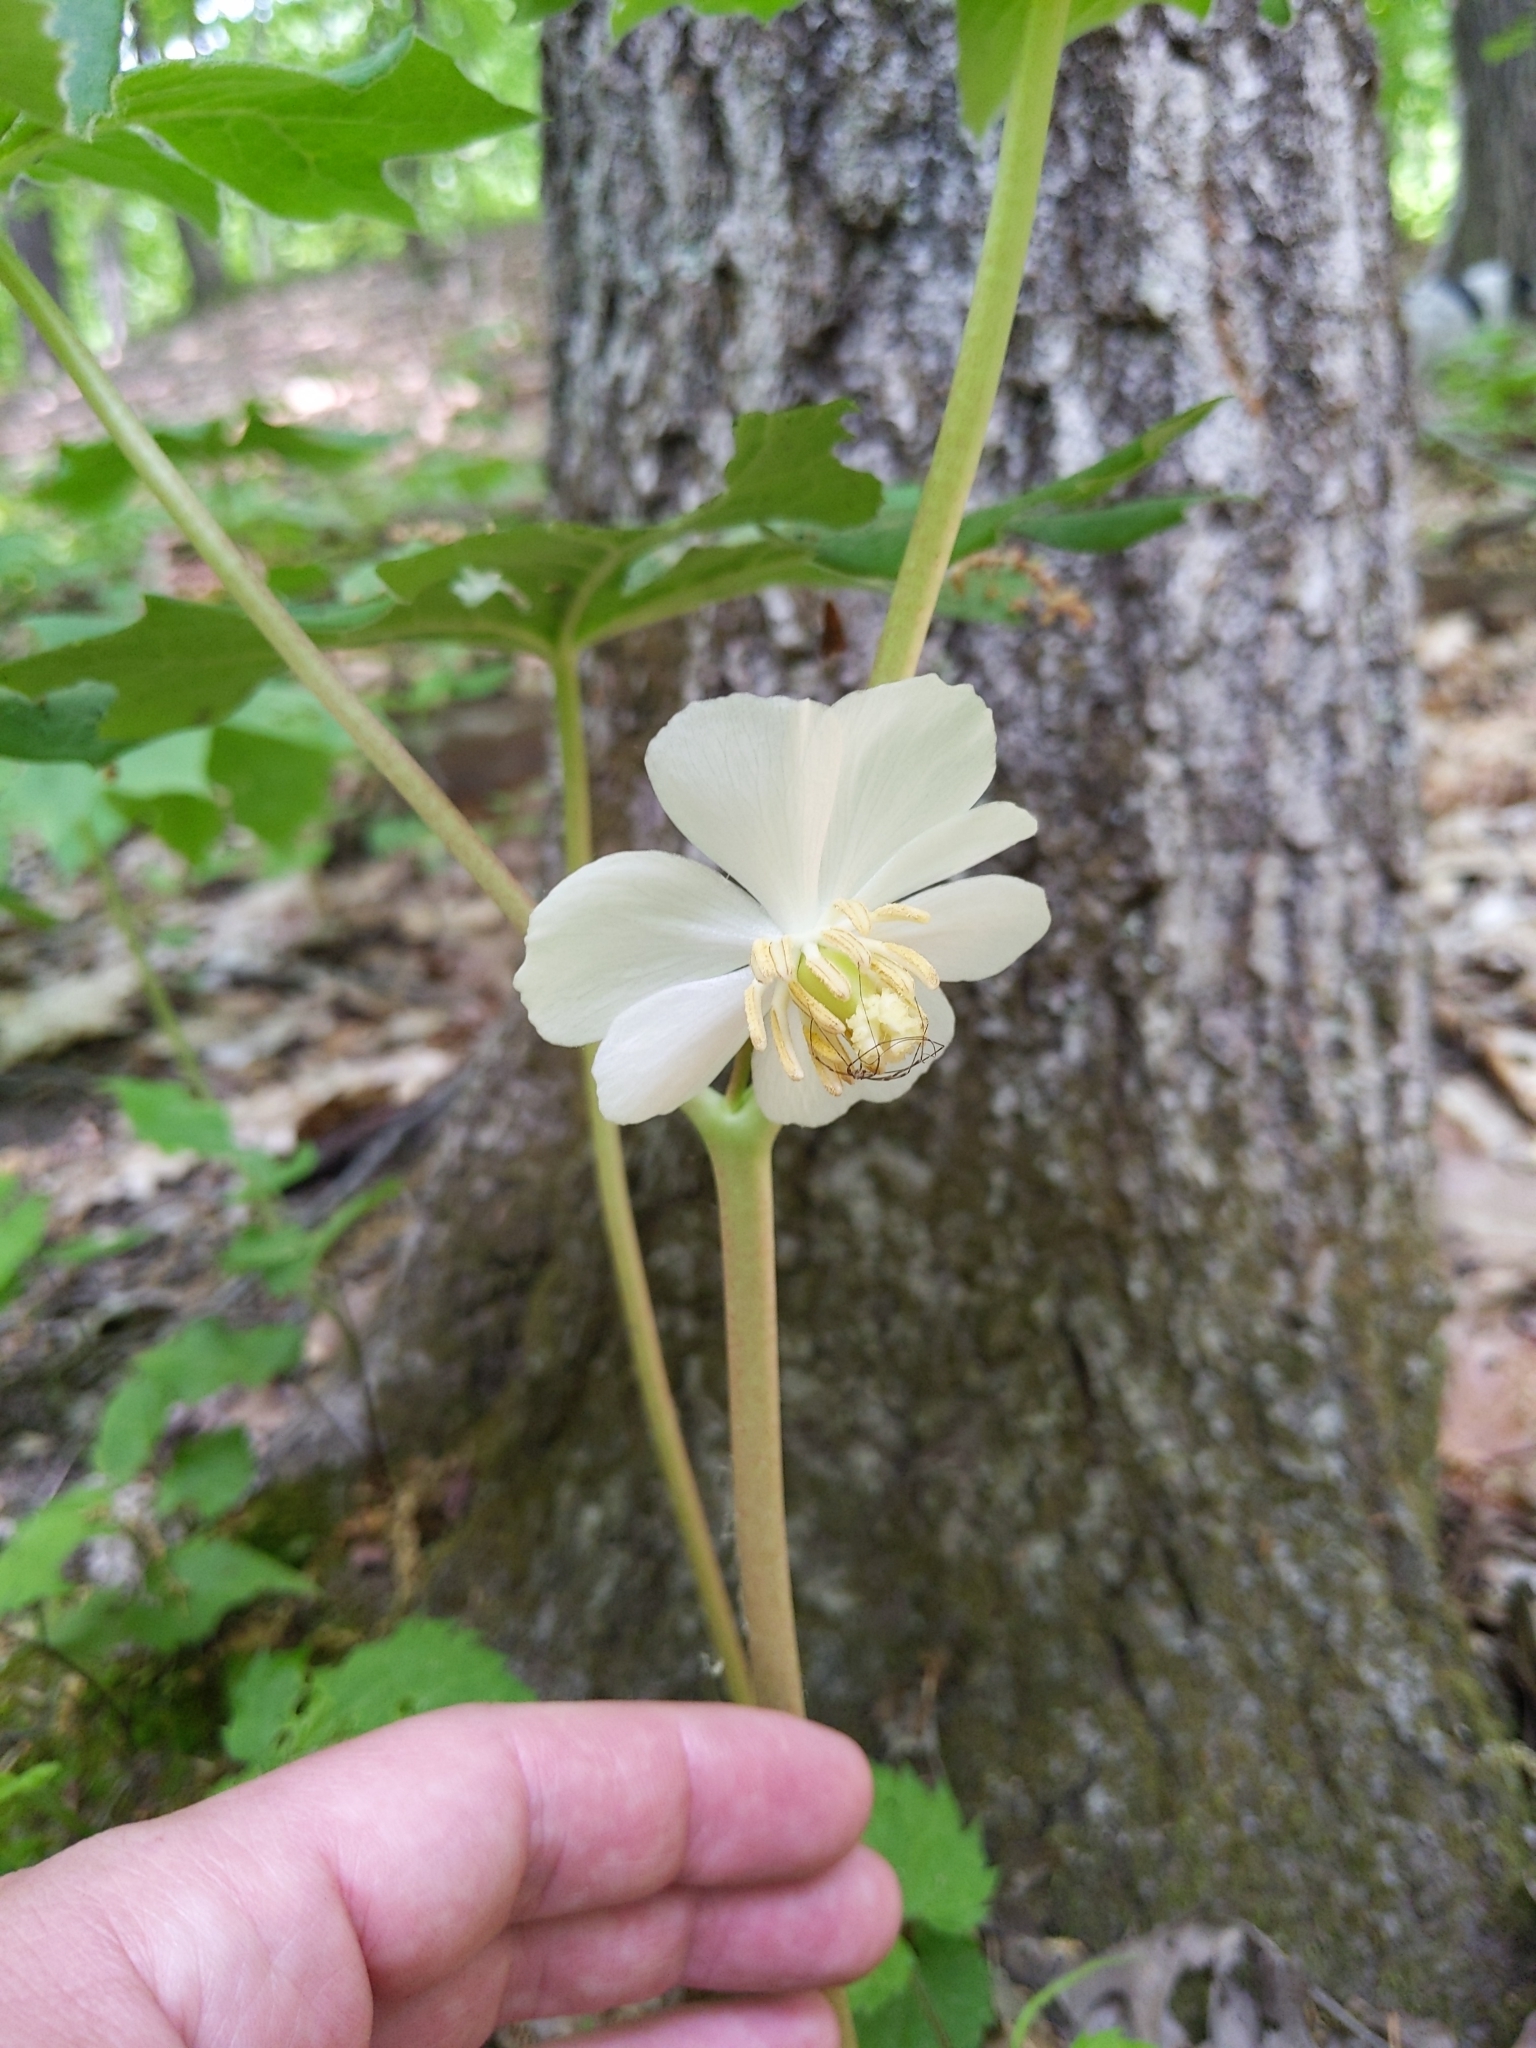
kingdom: Plantae
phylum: Tracheophyta
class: Magnoliopsida
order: Ranunculales
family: Berberidaceae
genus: Podophyllum
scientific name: Podophyllum peltatum
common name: Wild mandrake
